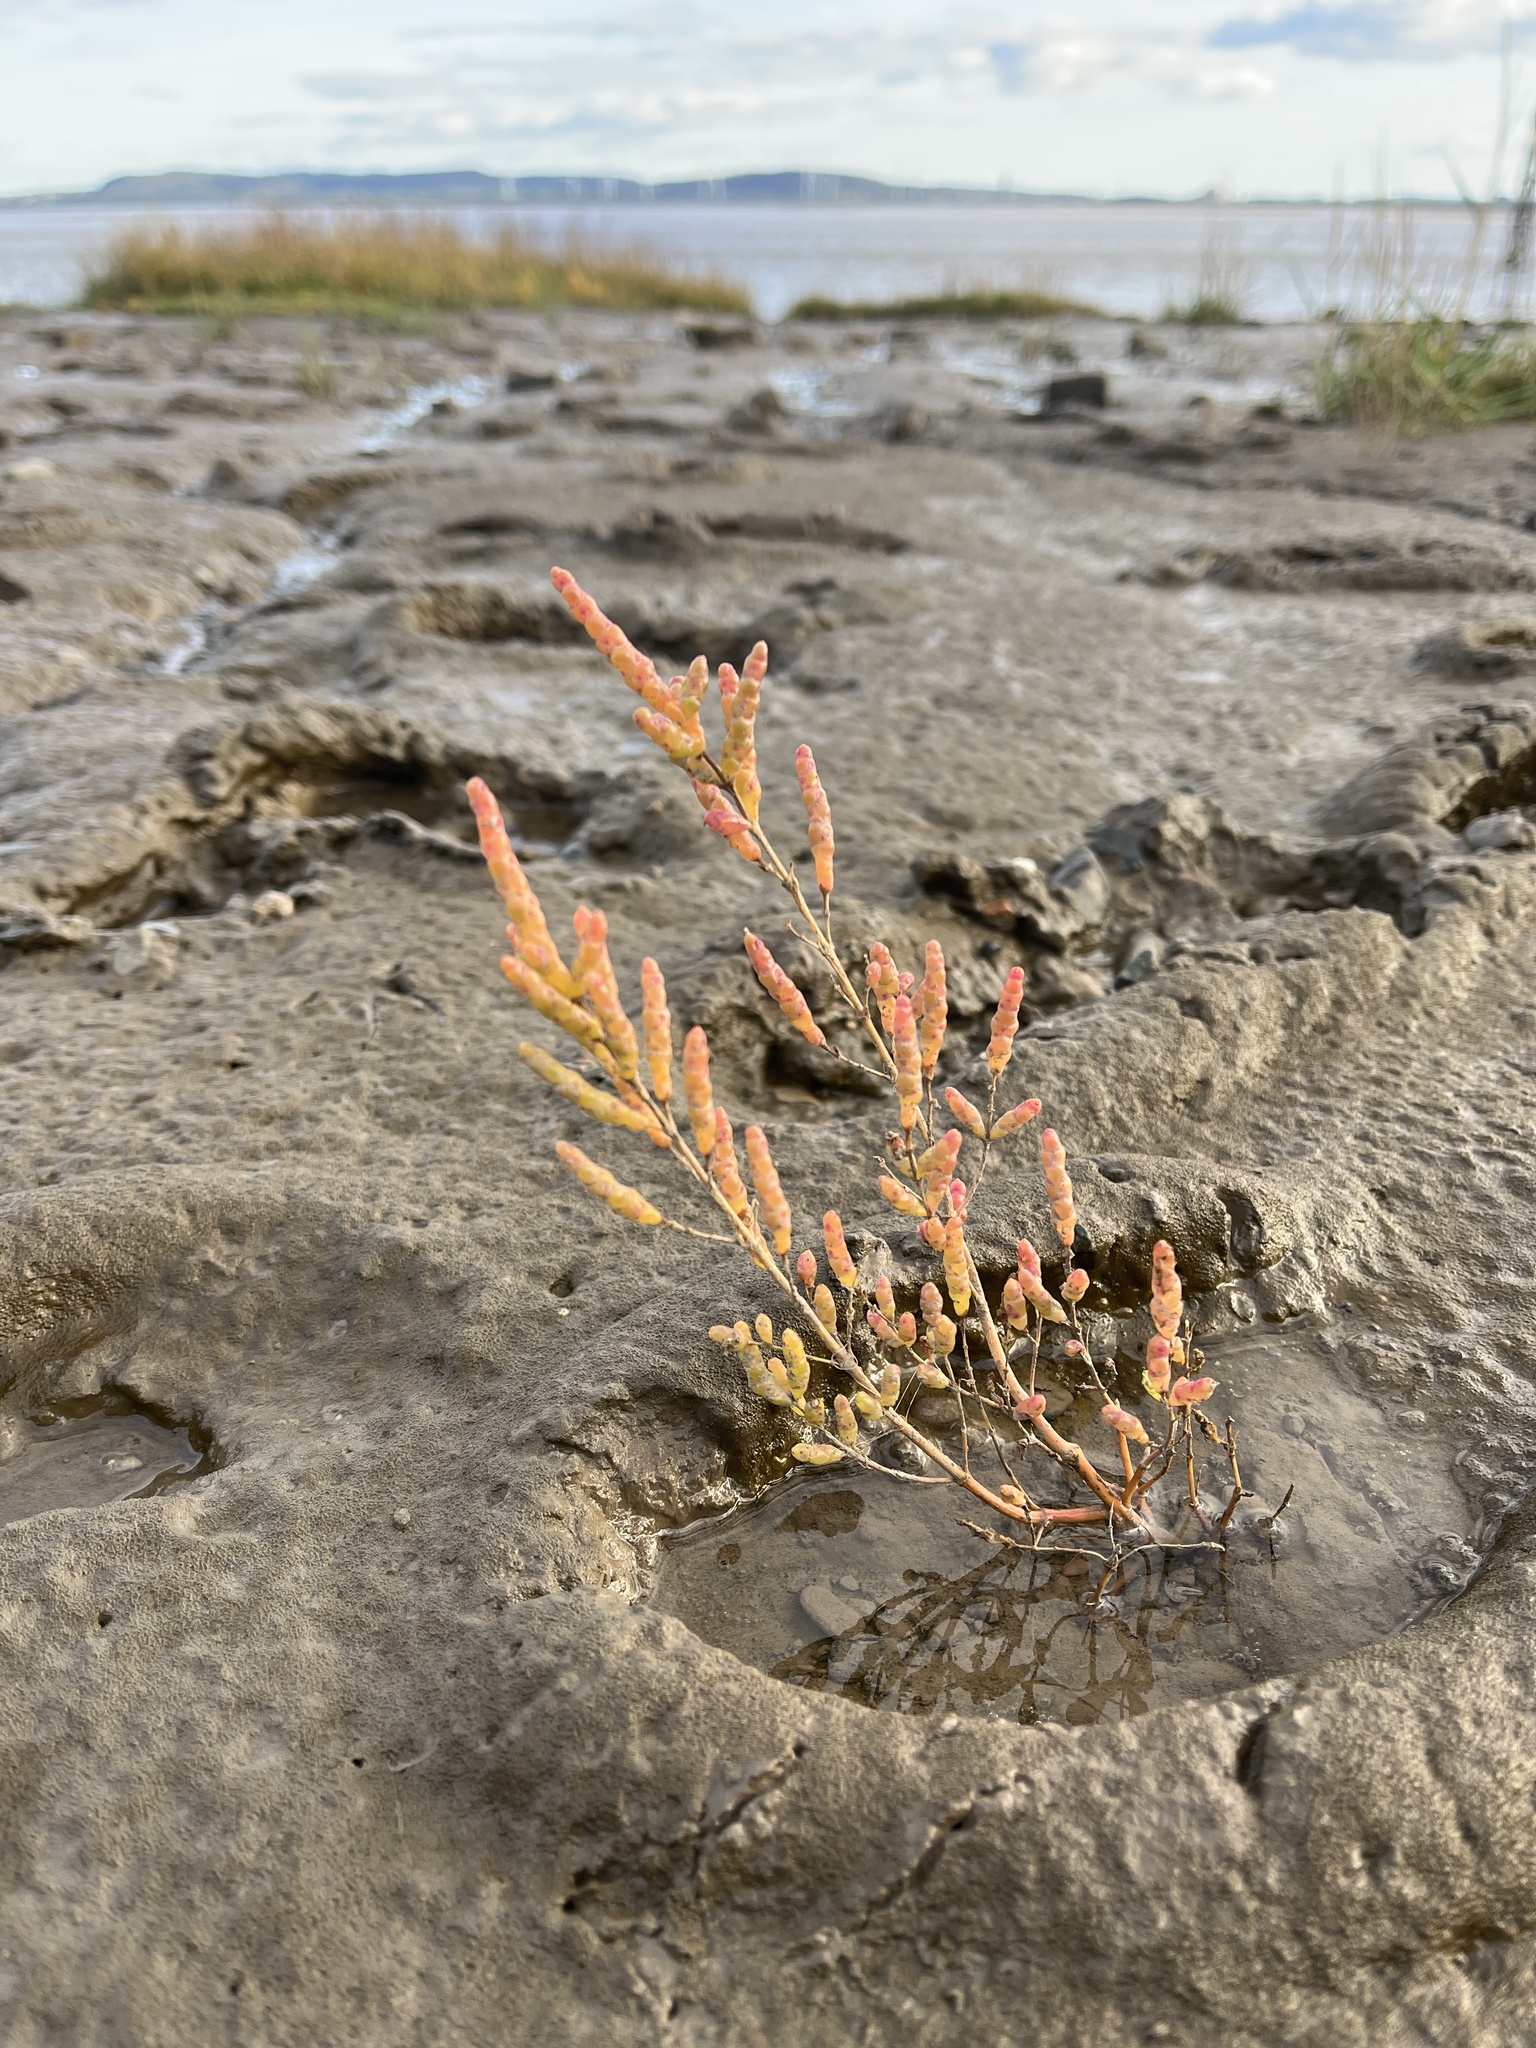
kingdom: Plantae
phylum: Tracheophyta
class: Magnoliopsida
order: Caryophyllales
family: Amaranthaceae
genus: Salicornia
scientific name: Salicornia europaea
